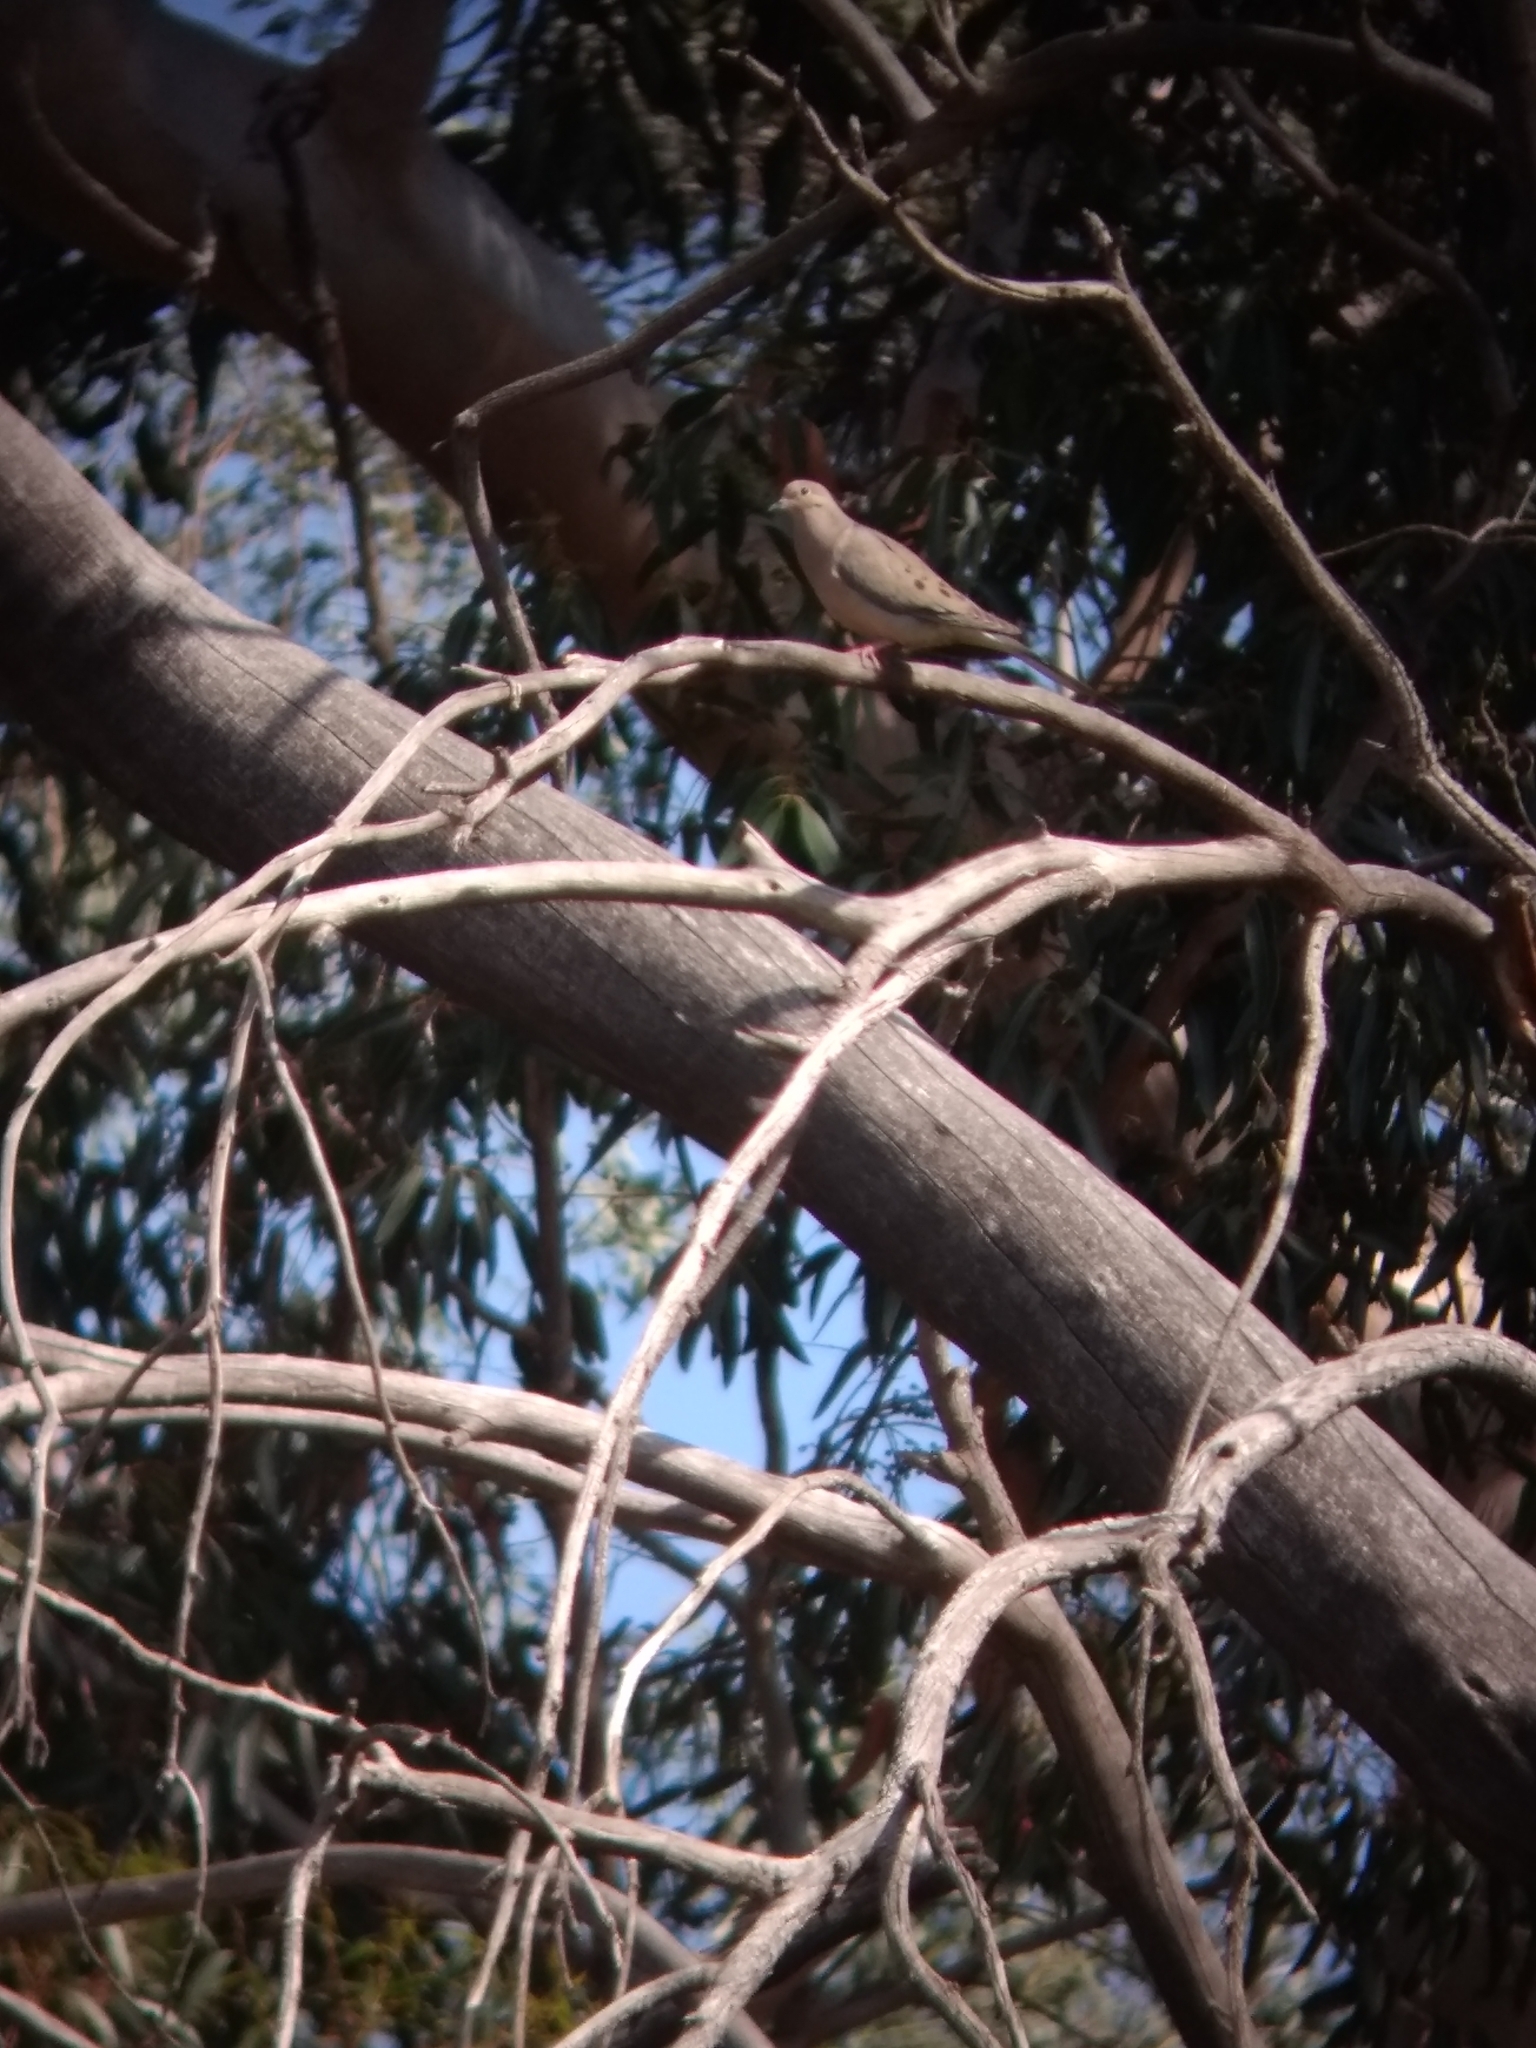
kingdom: Animalia
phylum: Chordata
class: Aves
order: Columbiformes
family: Columbidae
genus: Zenaida
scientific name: Zenaida macroura
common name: Mourning dove
